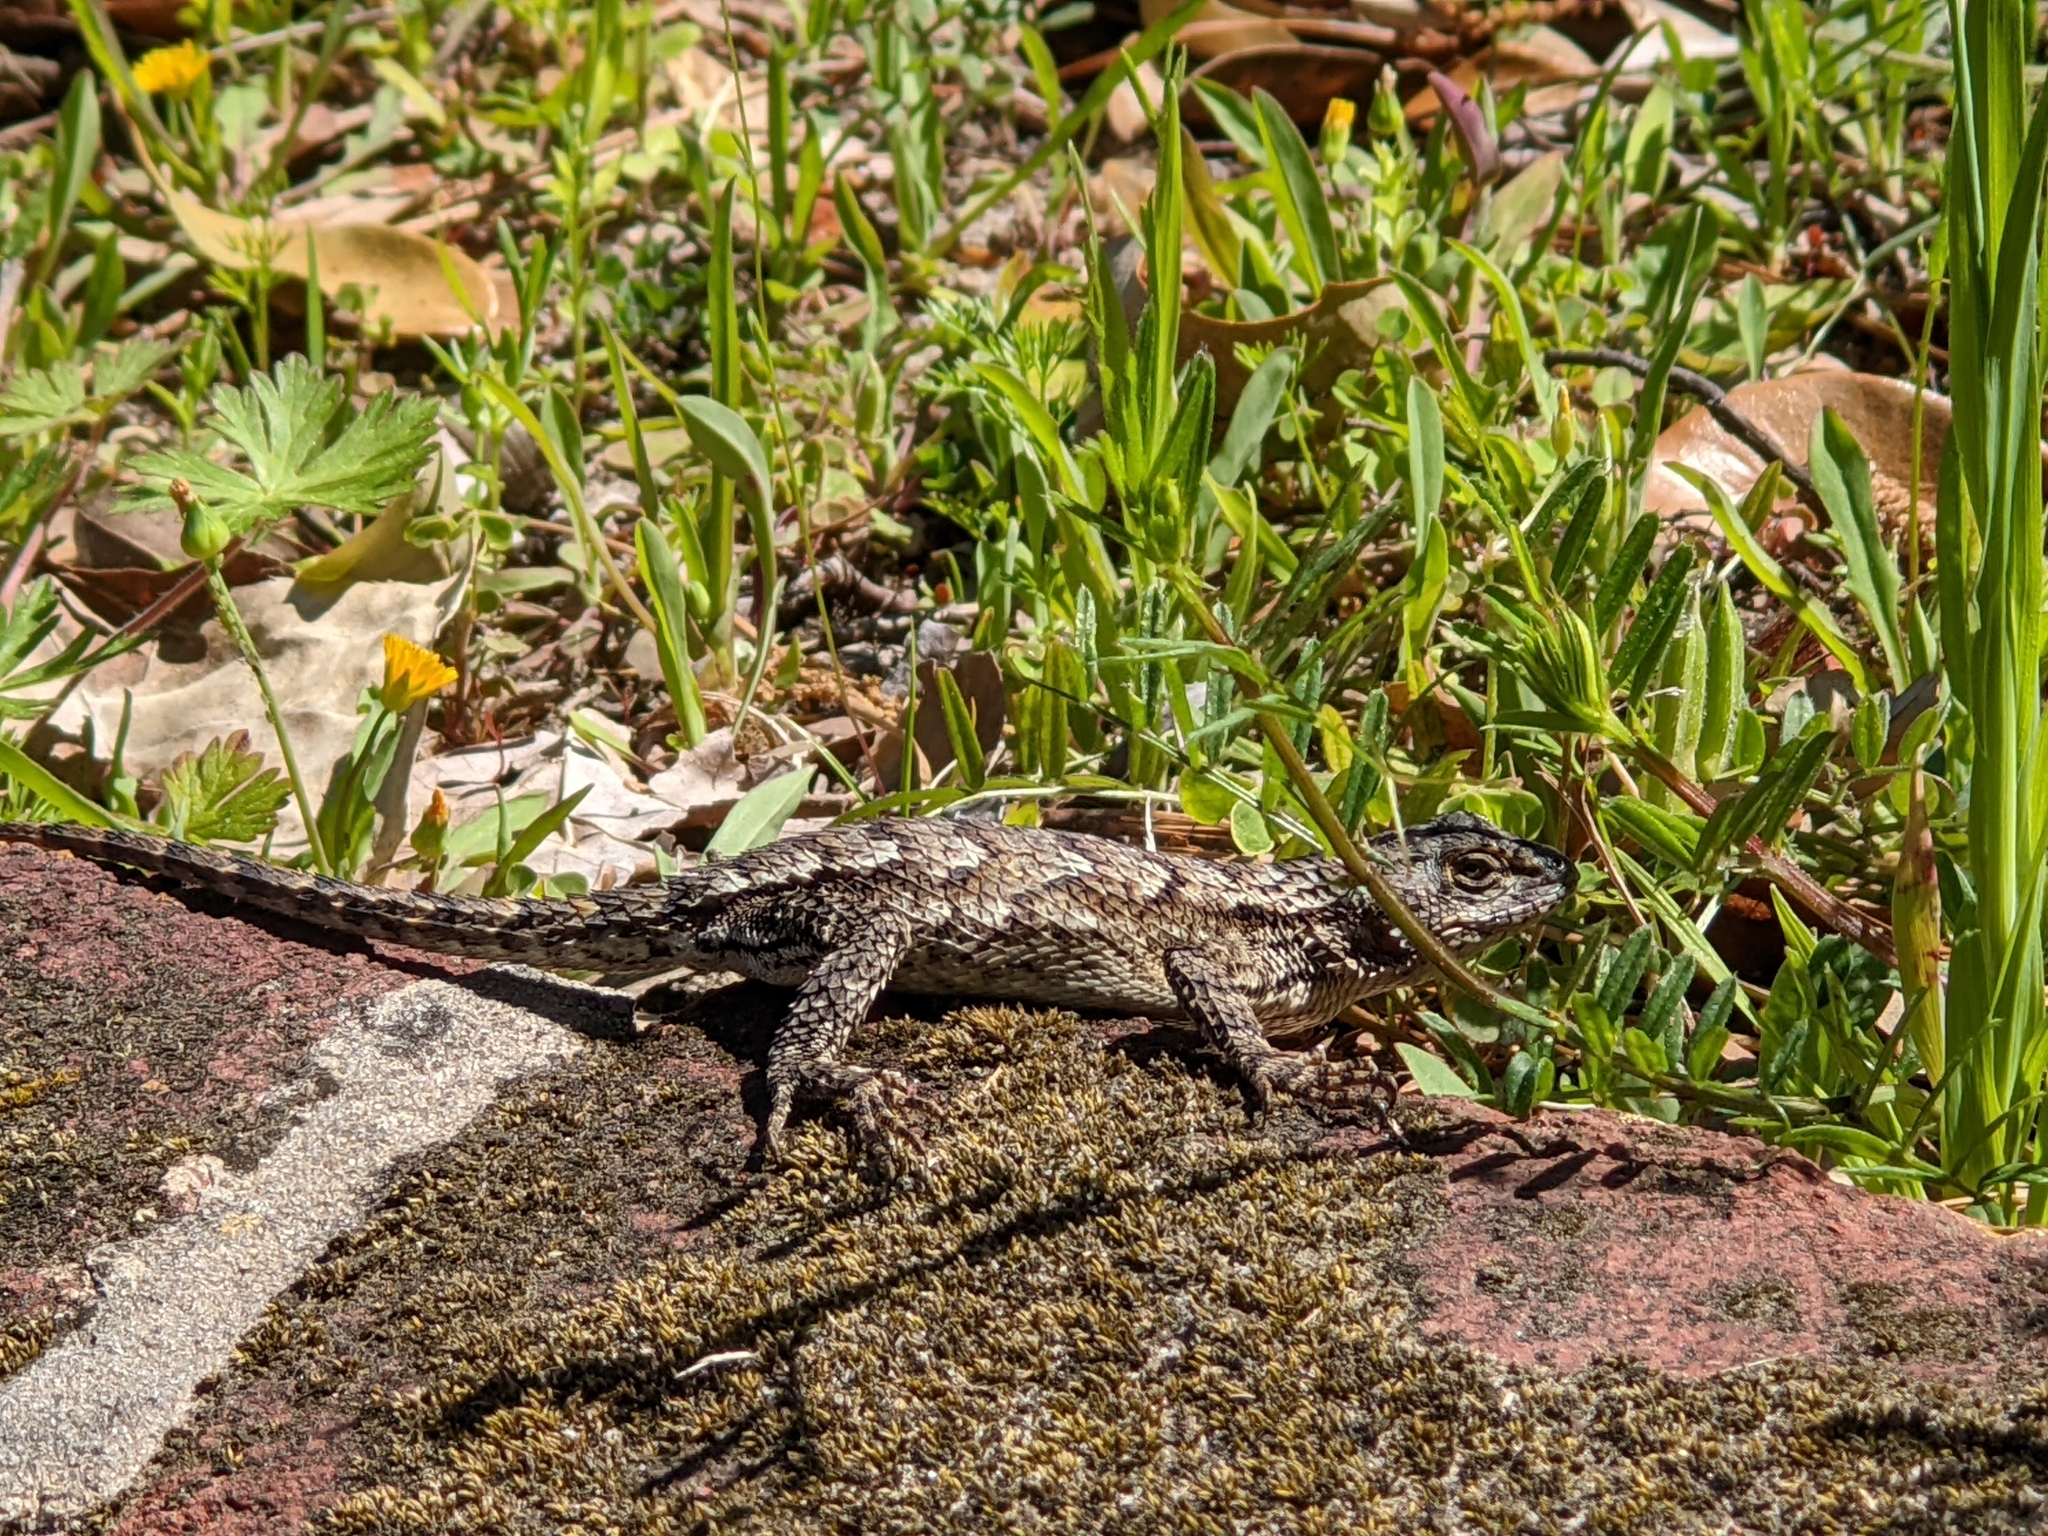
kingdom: Animalia
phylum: Chordata
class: Squamata
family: Phrynosomatidae
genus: Sceloporus
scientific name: Sceloporus consobrinus
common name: Southern prairie lizard
